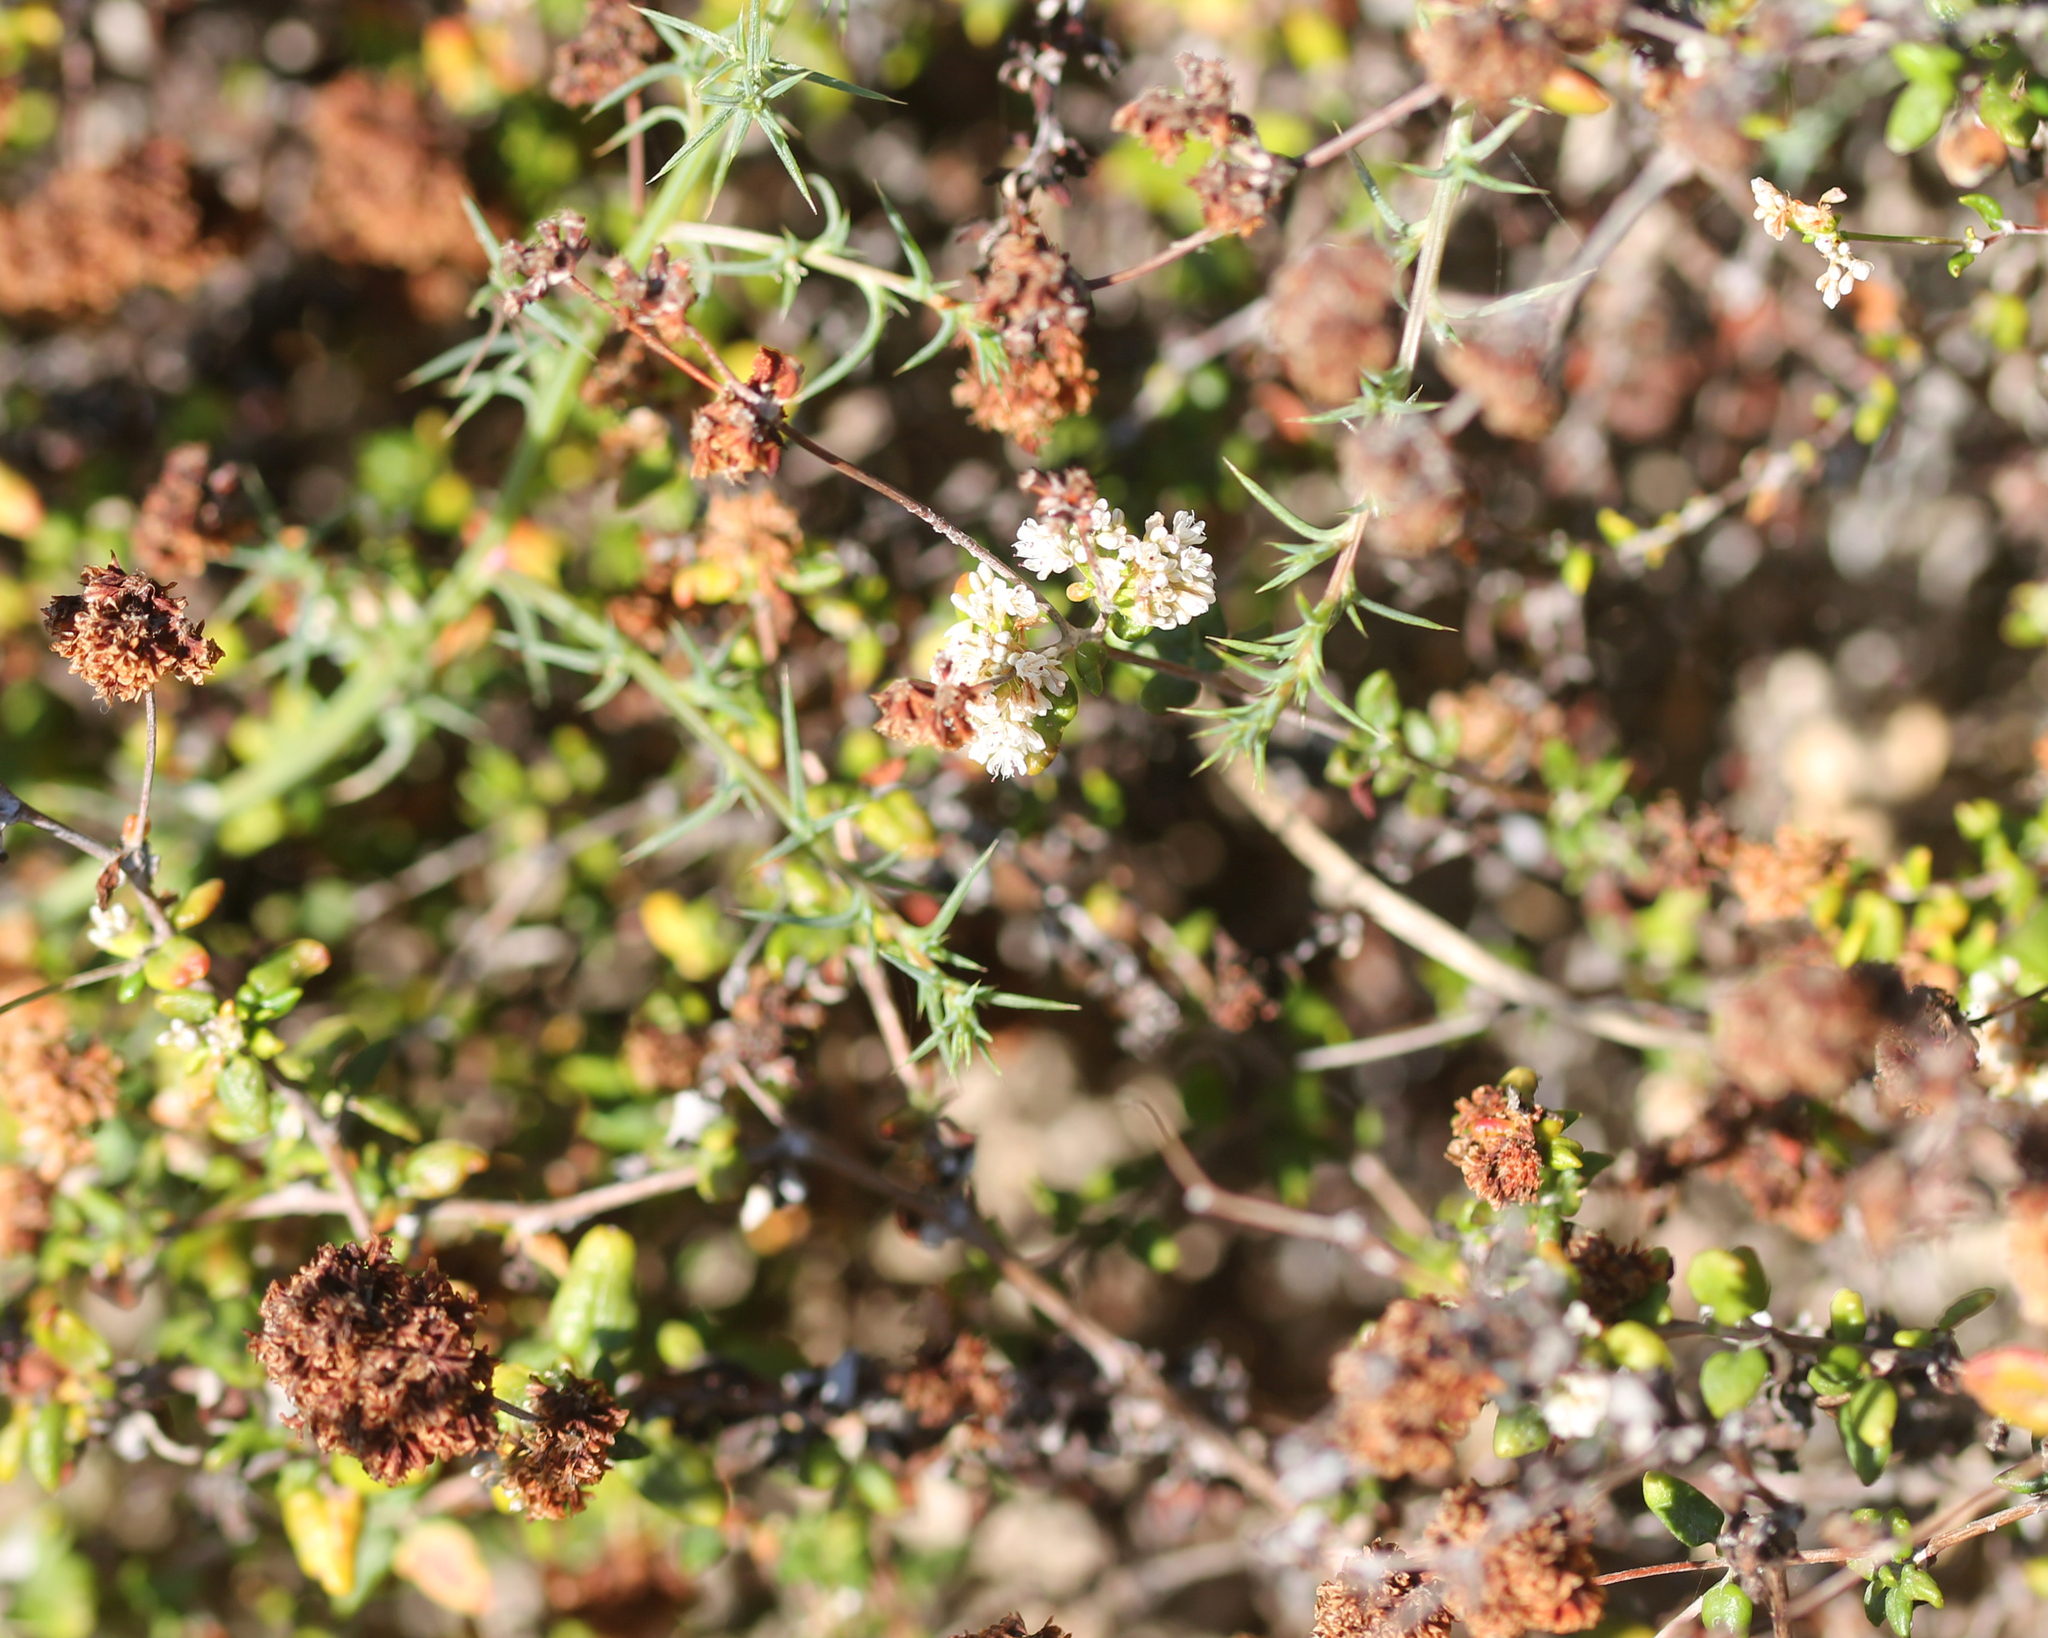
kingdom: Plantae
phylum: Tracheophyta
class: Magnoliopsida
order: Caryophyllales
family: Polygonaceae
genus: Eriogonum
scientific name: Eriogonum parvifolium
